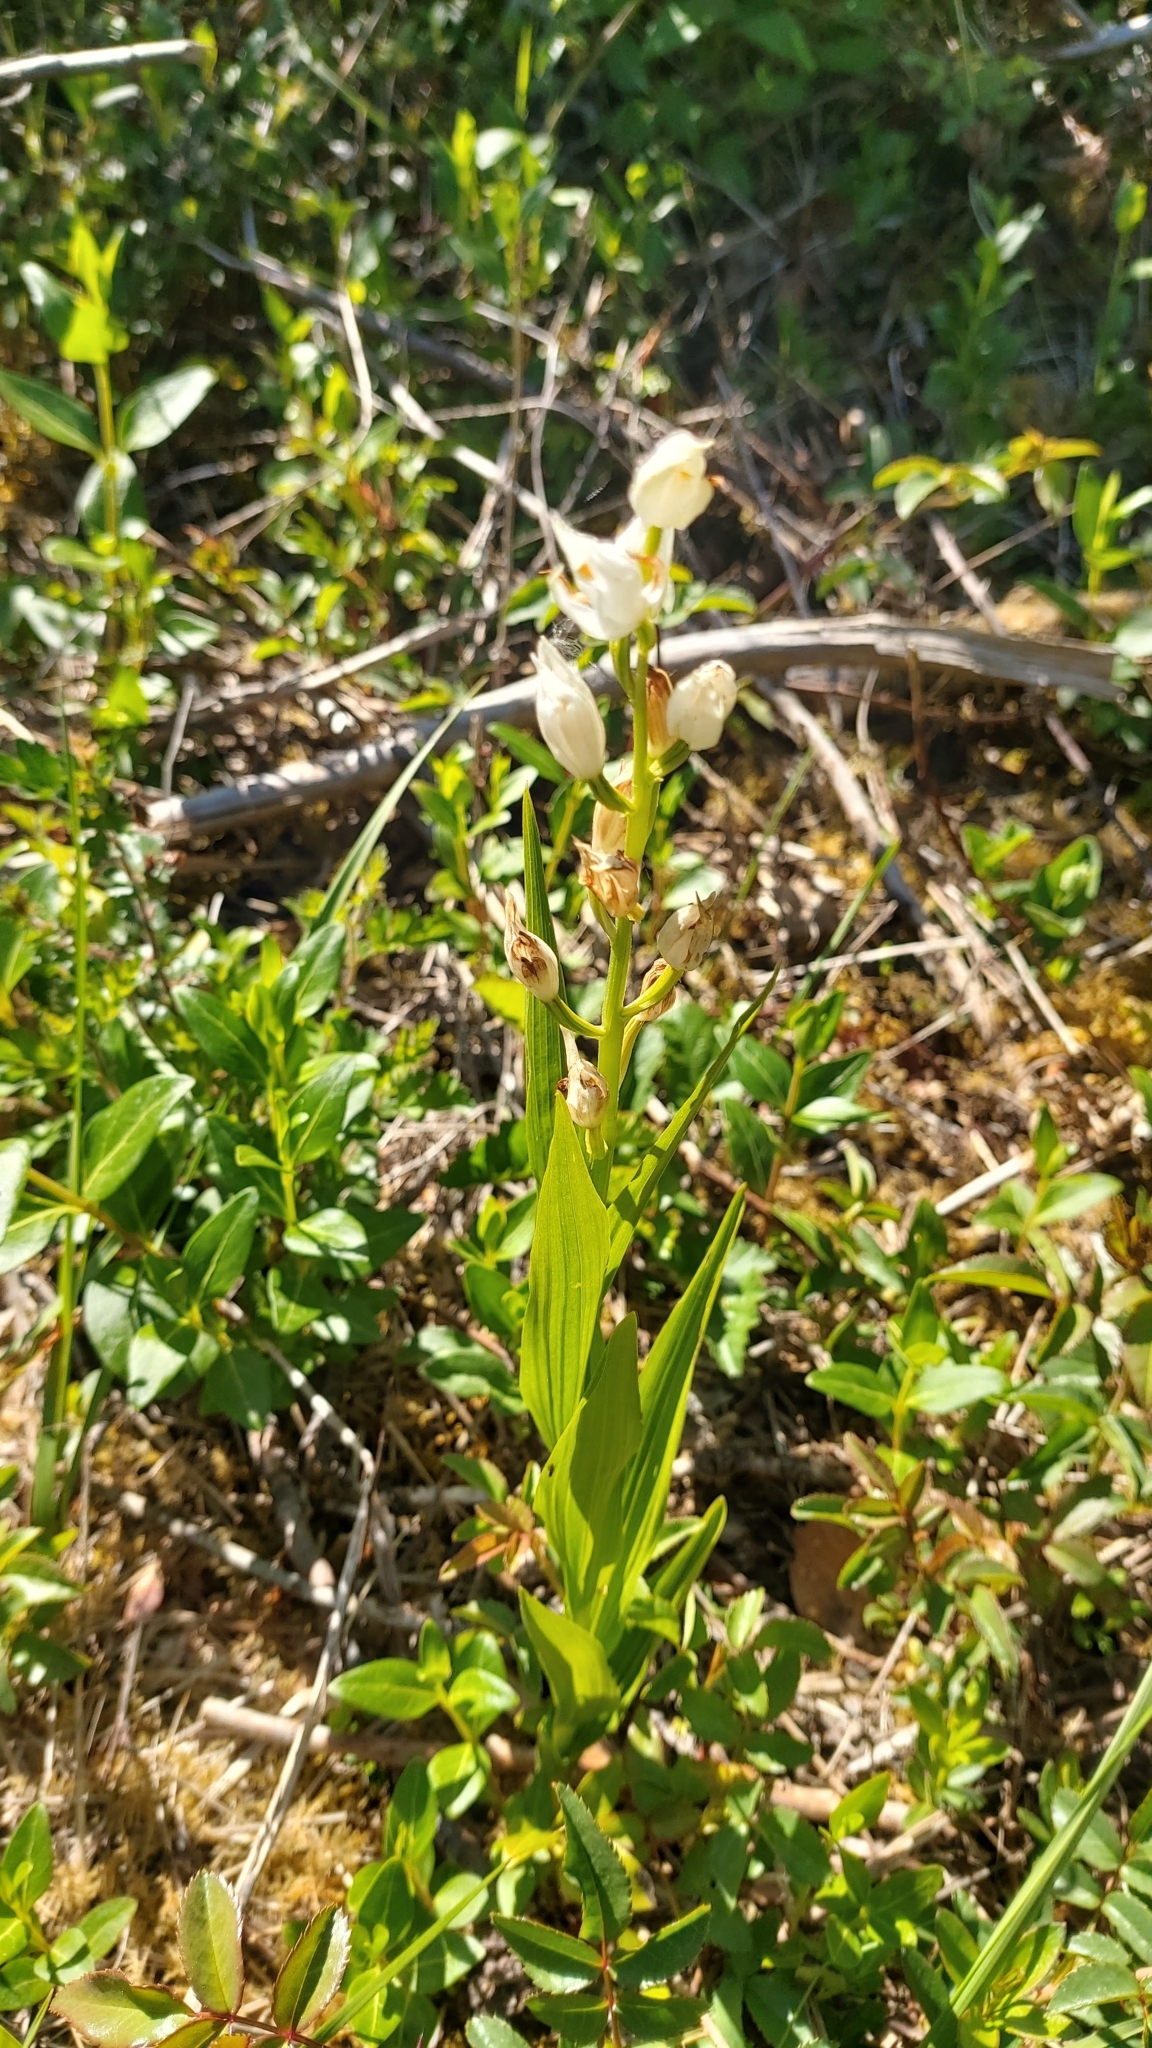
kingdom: Plantae
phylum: Tracheophyta
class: Liliopsida
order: Asparagales
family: Orchidaceae
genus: Cephalanthera
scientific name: Cephalanthera longifolia
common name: Narrow-leaved helleborine
